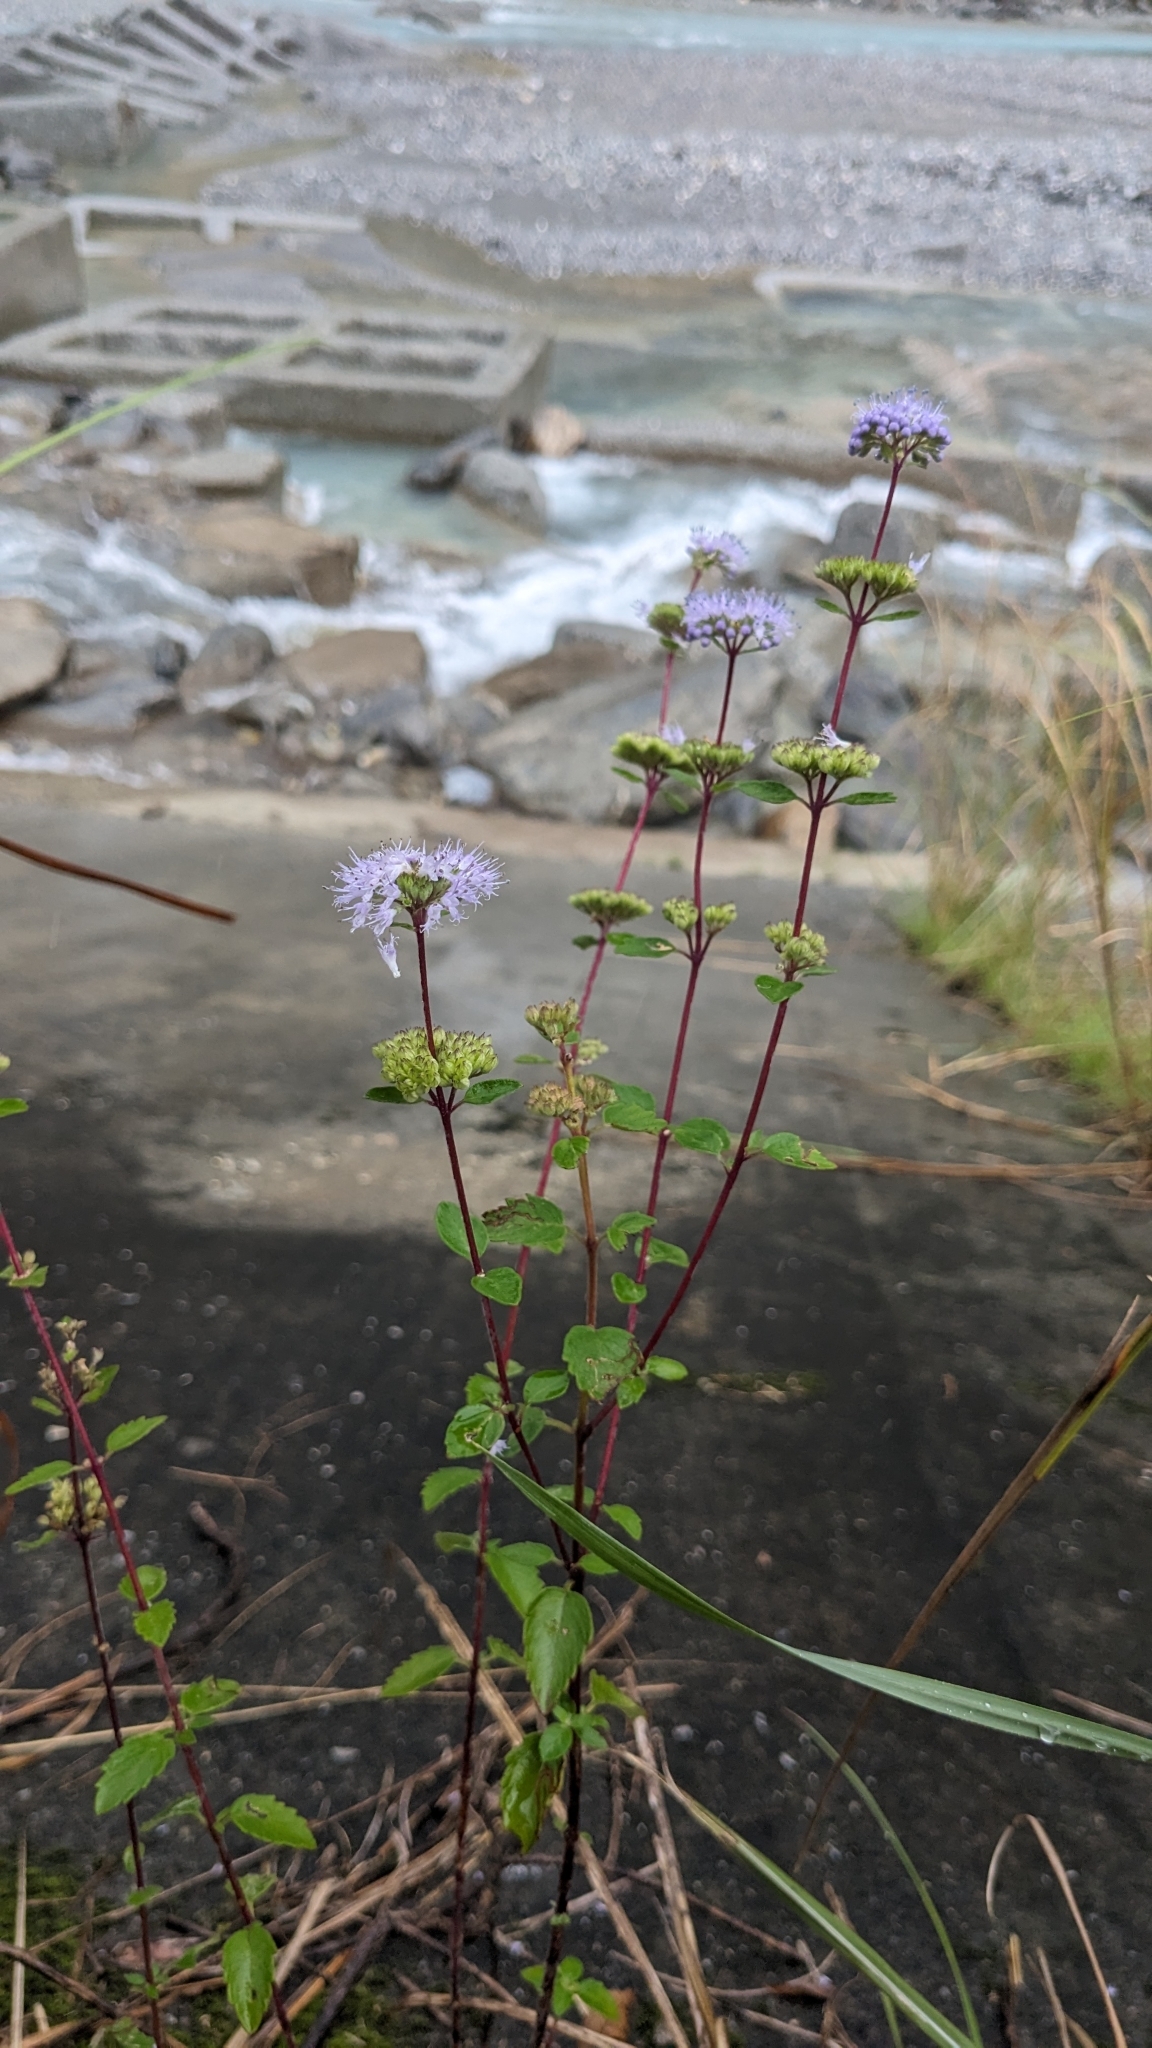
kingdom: Plantae
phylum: Tracheophyta
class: Magnoliopsida
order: Lamiales
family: Lamiaceae
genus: Caryopteris
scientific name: Caryopteris incana
